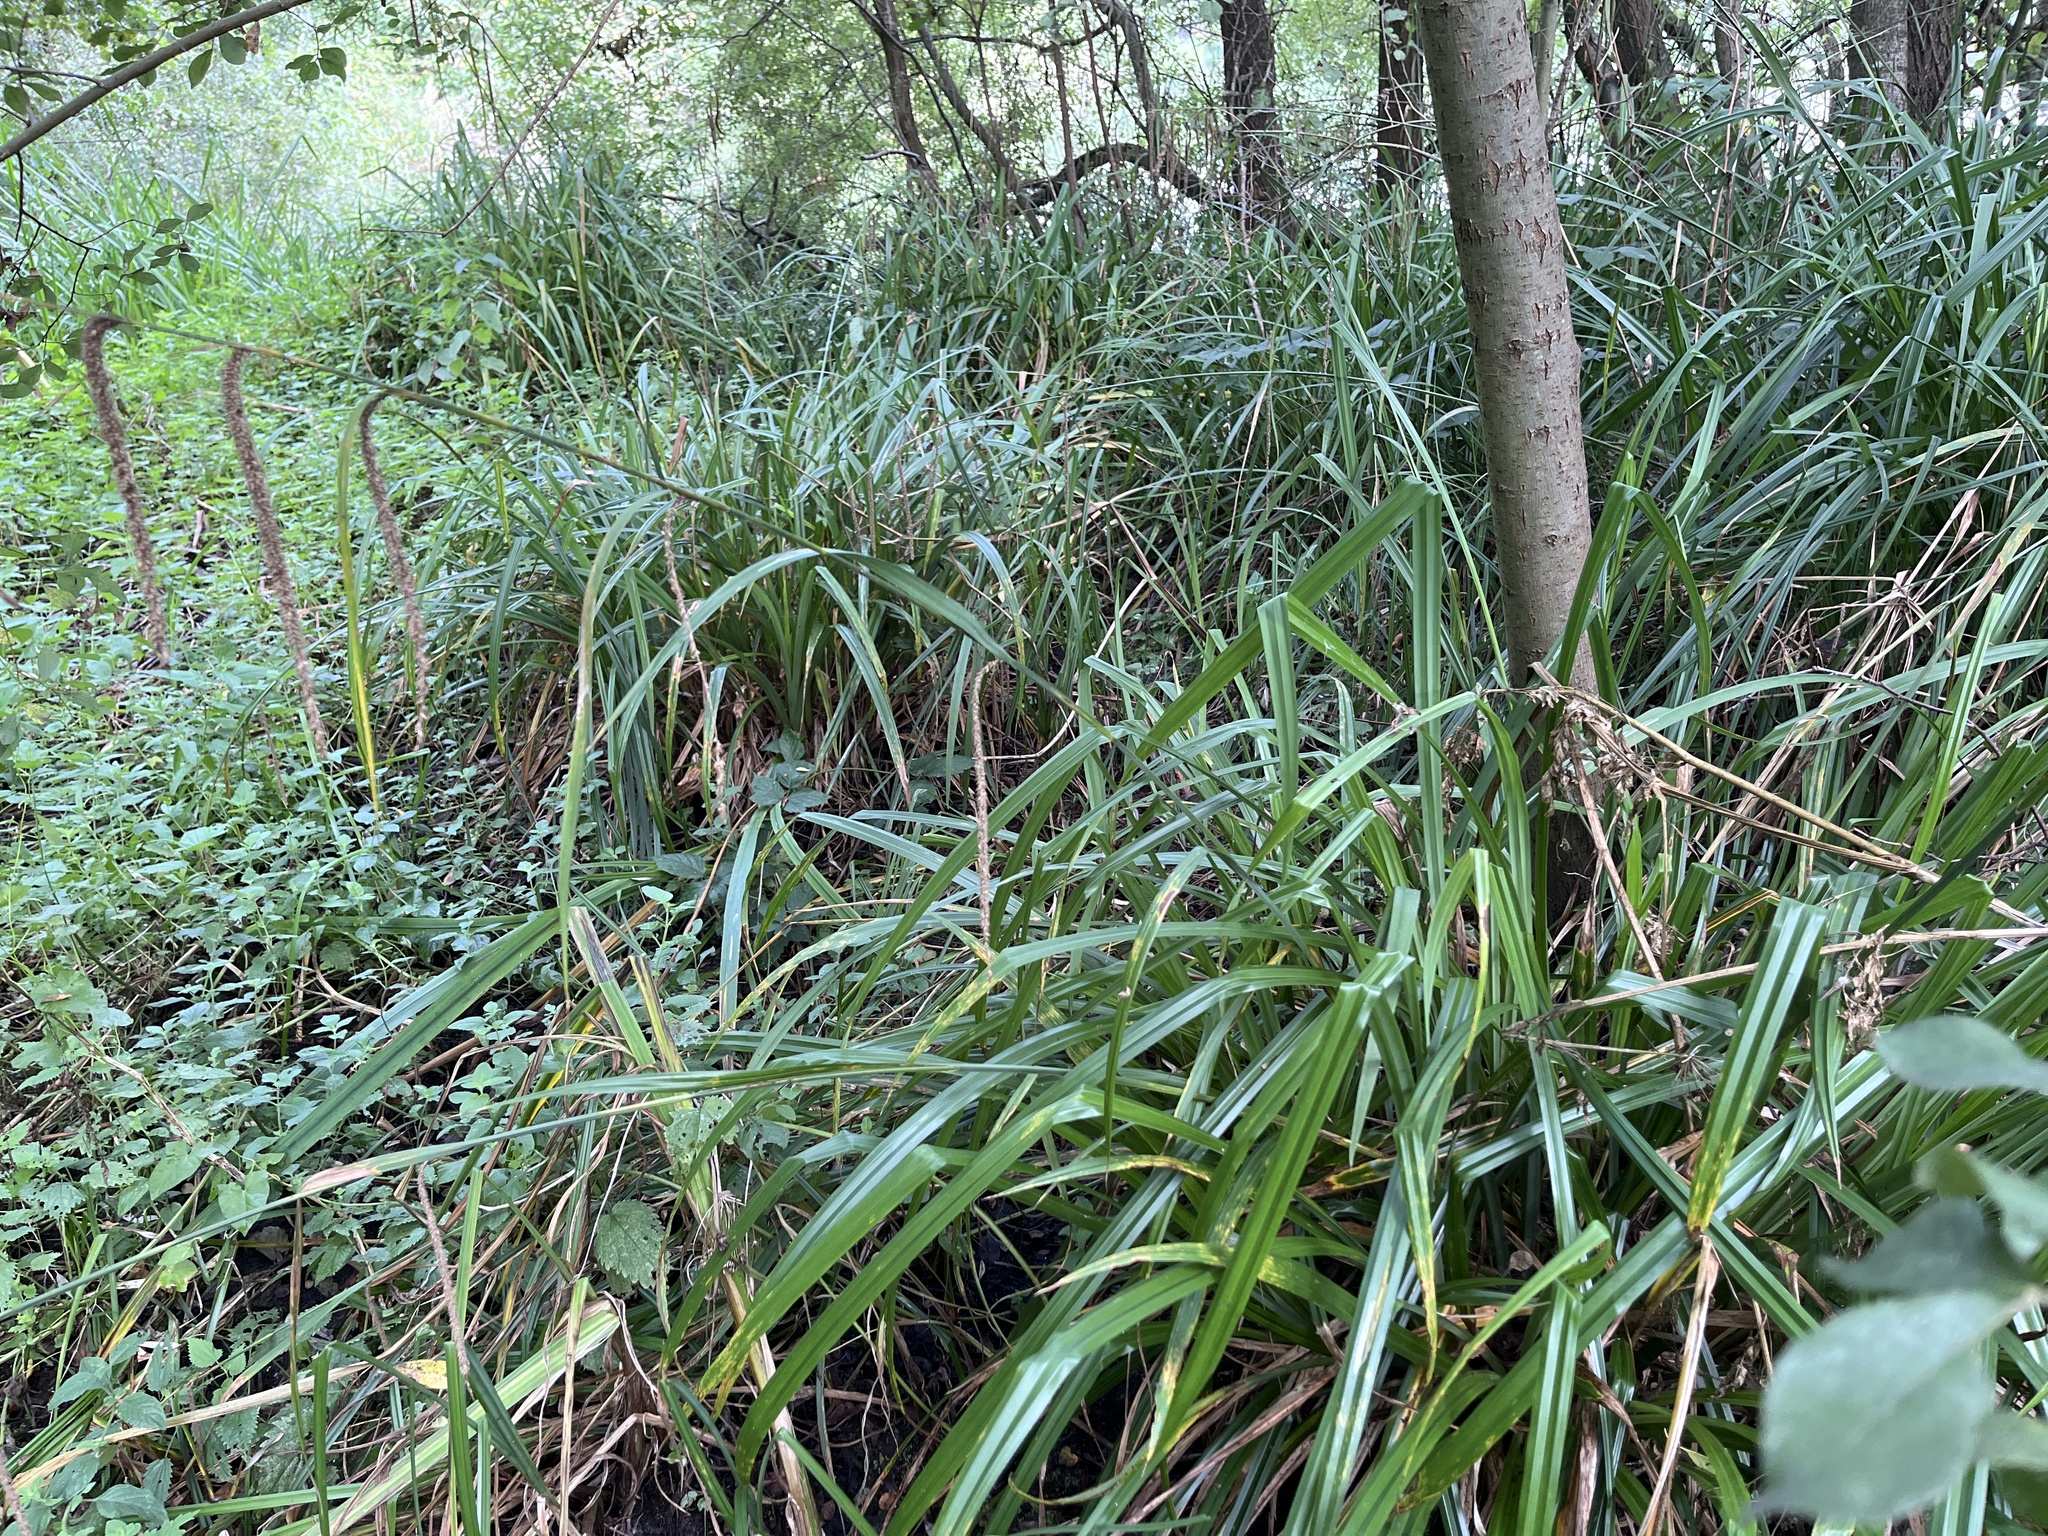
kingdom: Plantae
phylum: Tracheophyta
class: Liliopsida
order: Poales
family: Cyperaceae
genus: Carex
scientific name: Carex pendula
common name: Pendulous sedge
